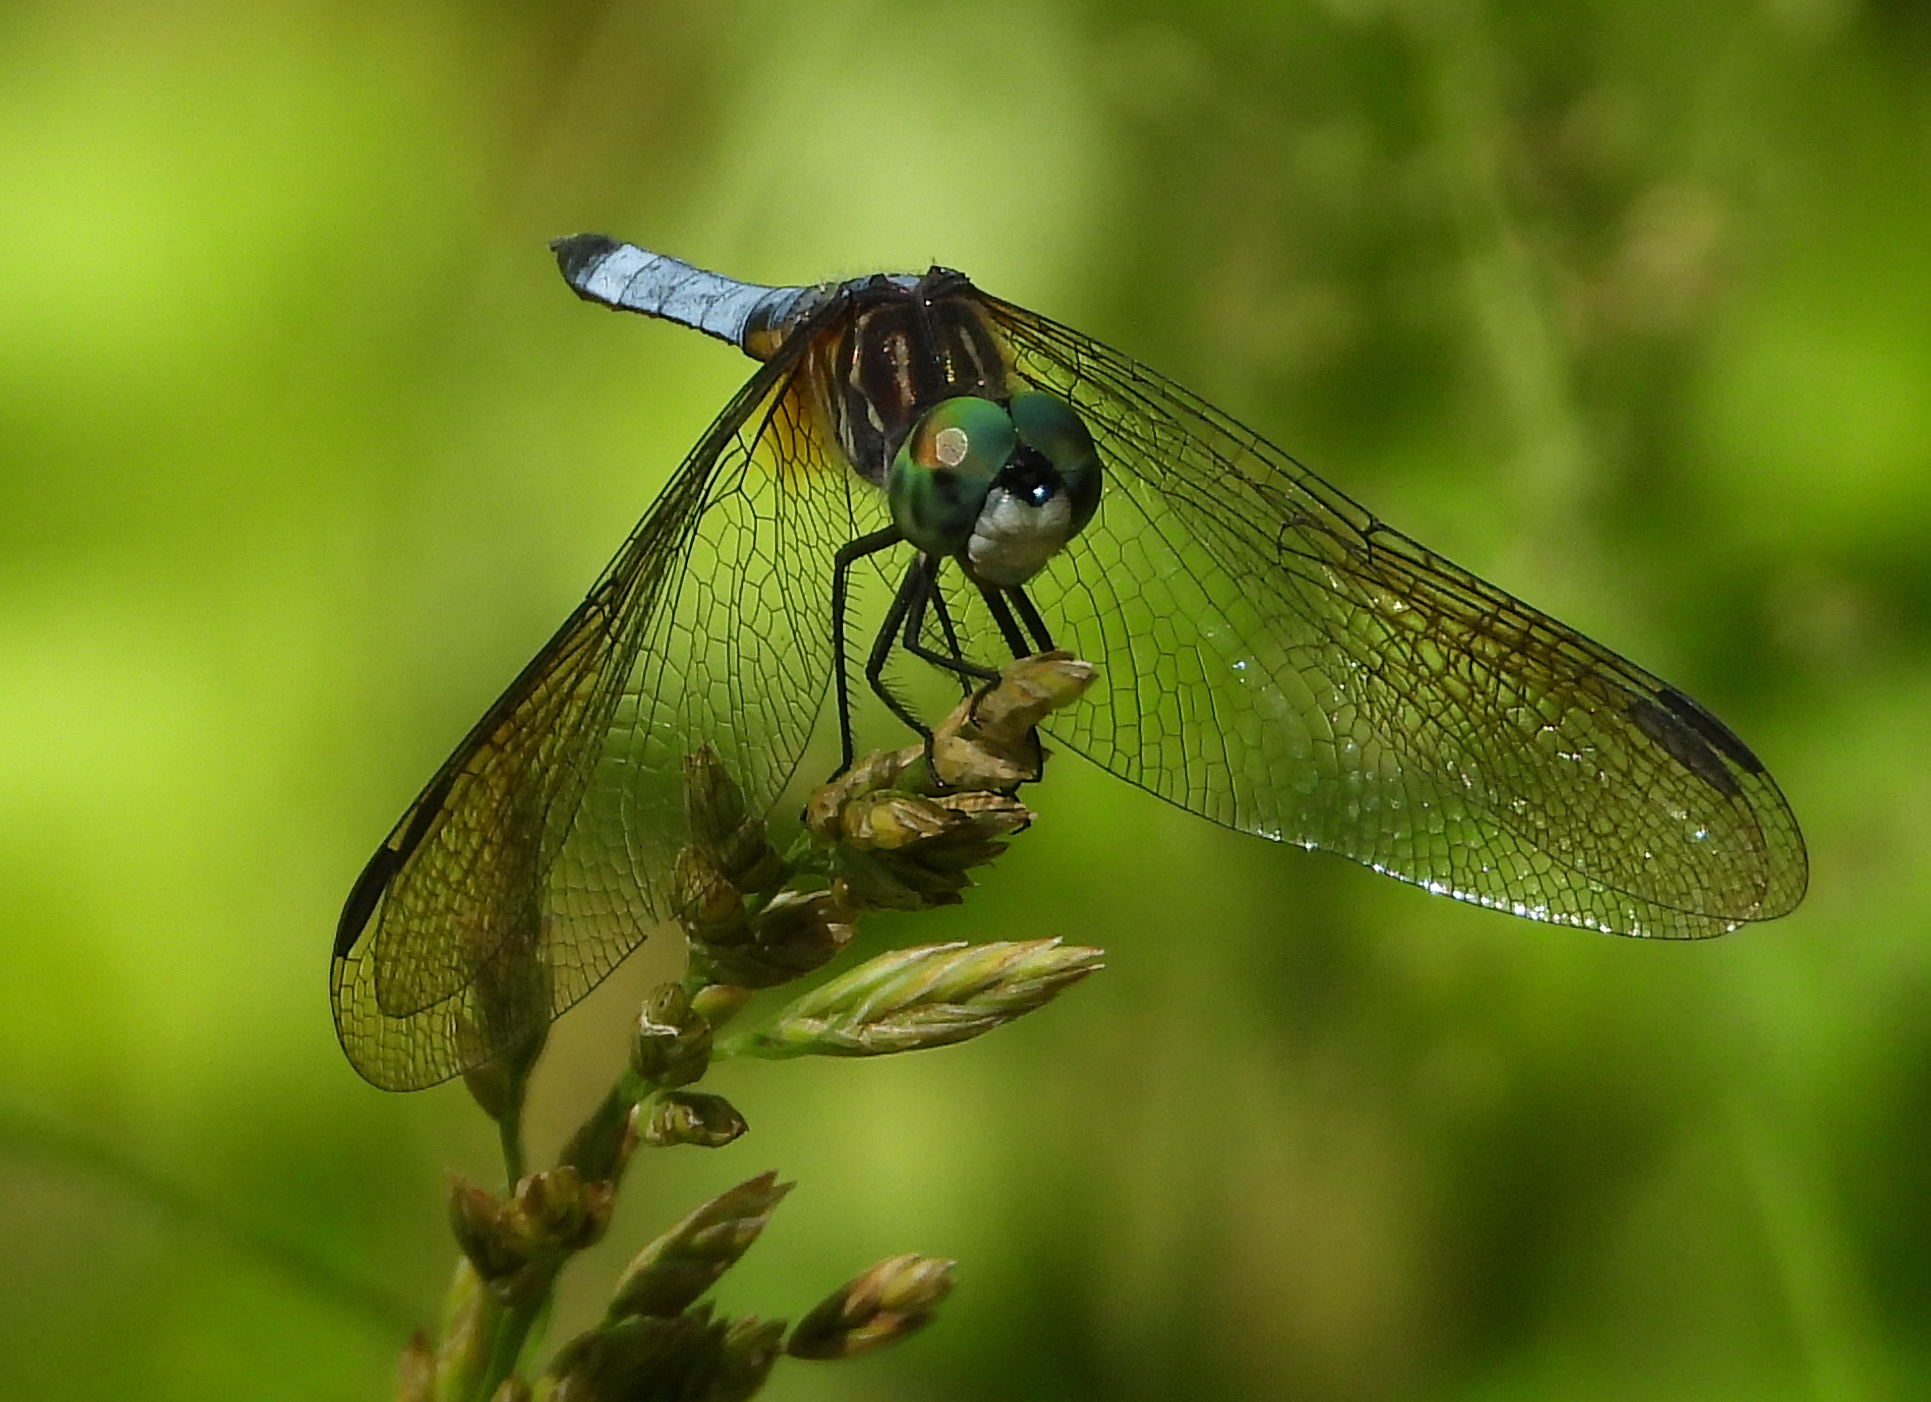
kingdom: Animalia
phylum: Arthropoda
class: Insecta
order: Odonata
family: Libellulidae
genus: Pachydiplax
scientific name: Pachydiplax longipennis
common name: Blue dasher
